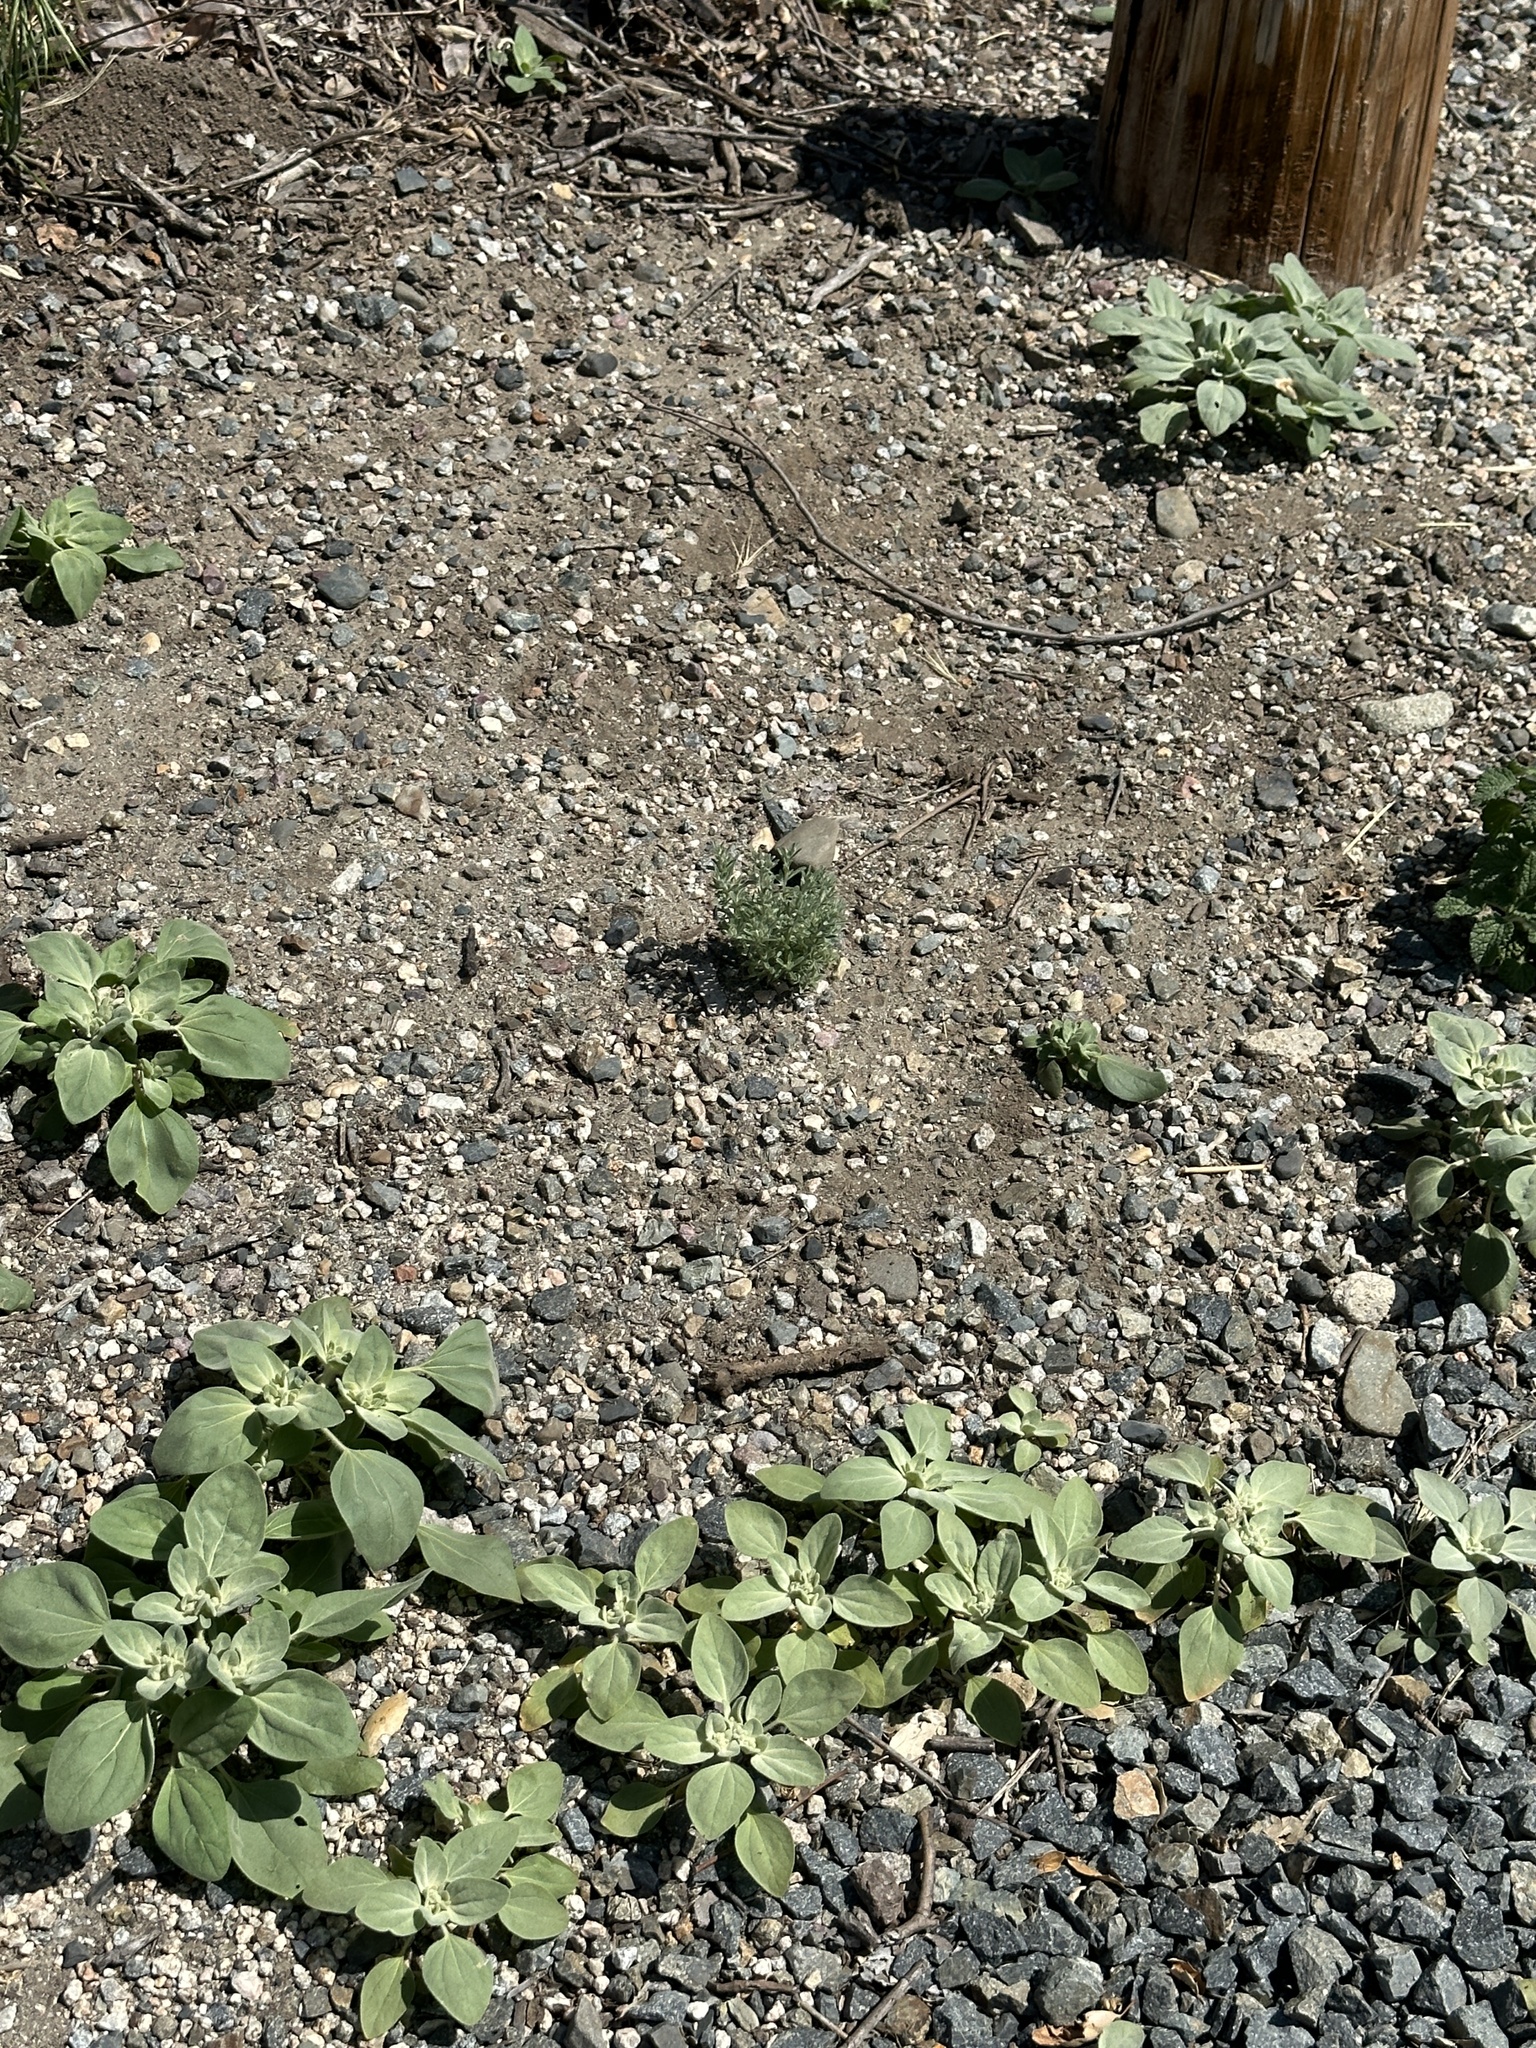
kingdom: Plantae
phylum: Tracheophyta
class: Magnoliopsida
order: Malpighiales
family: Euphorbiaceae
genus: Croton
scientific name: Croton setiger
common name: Dove weed
